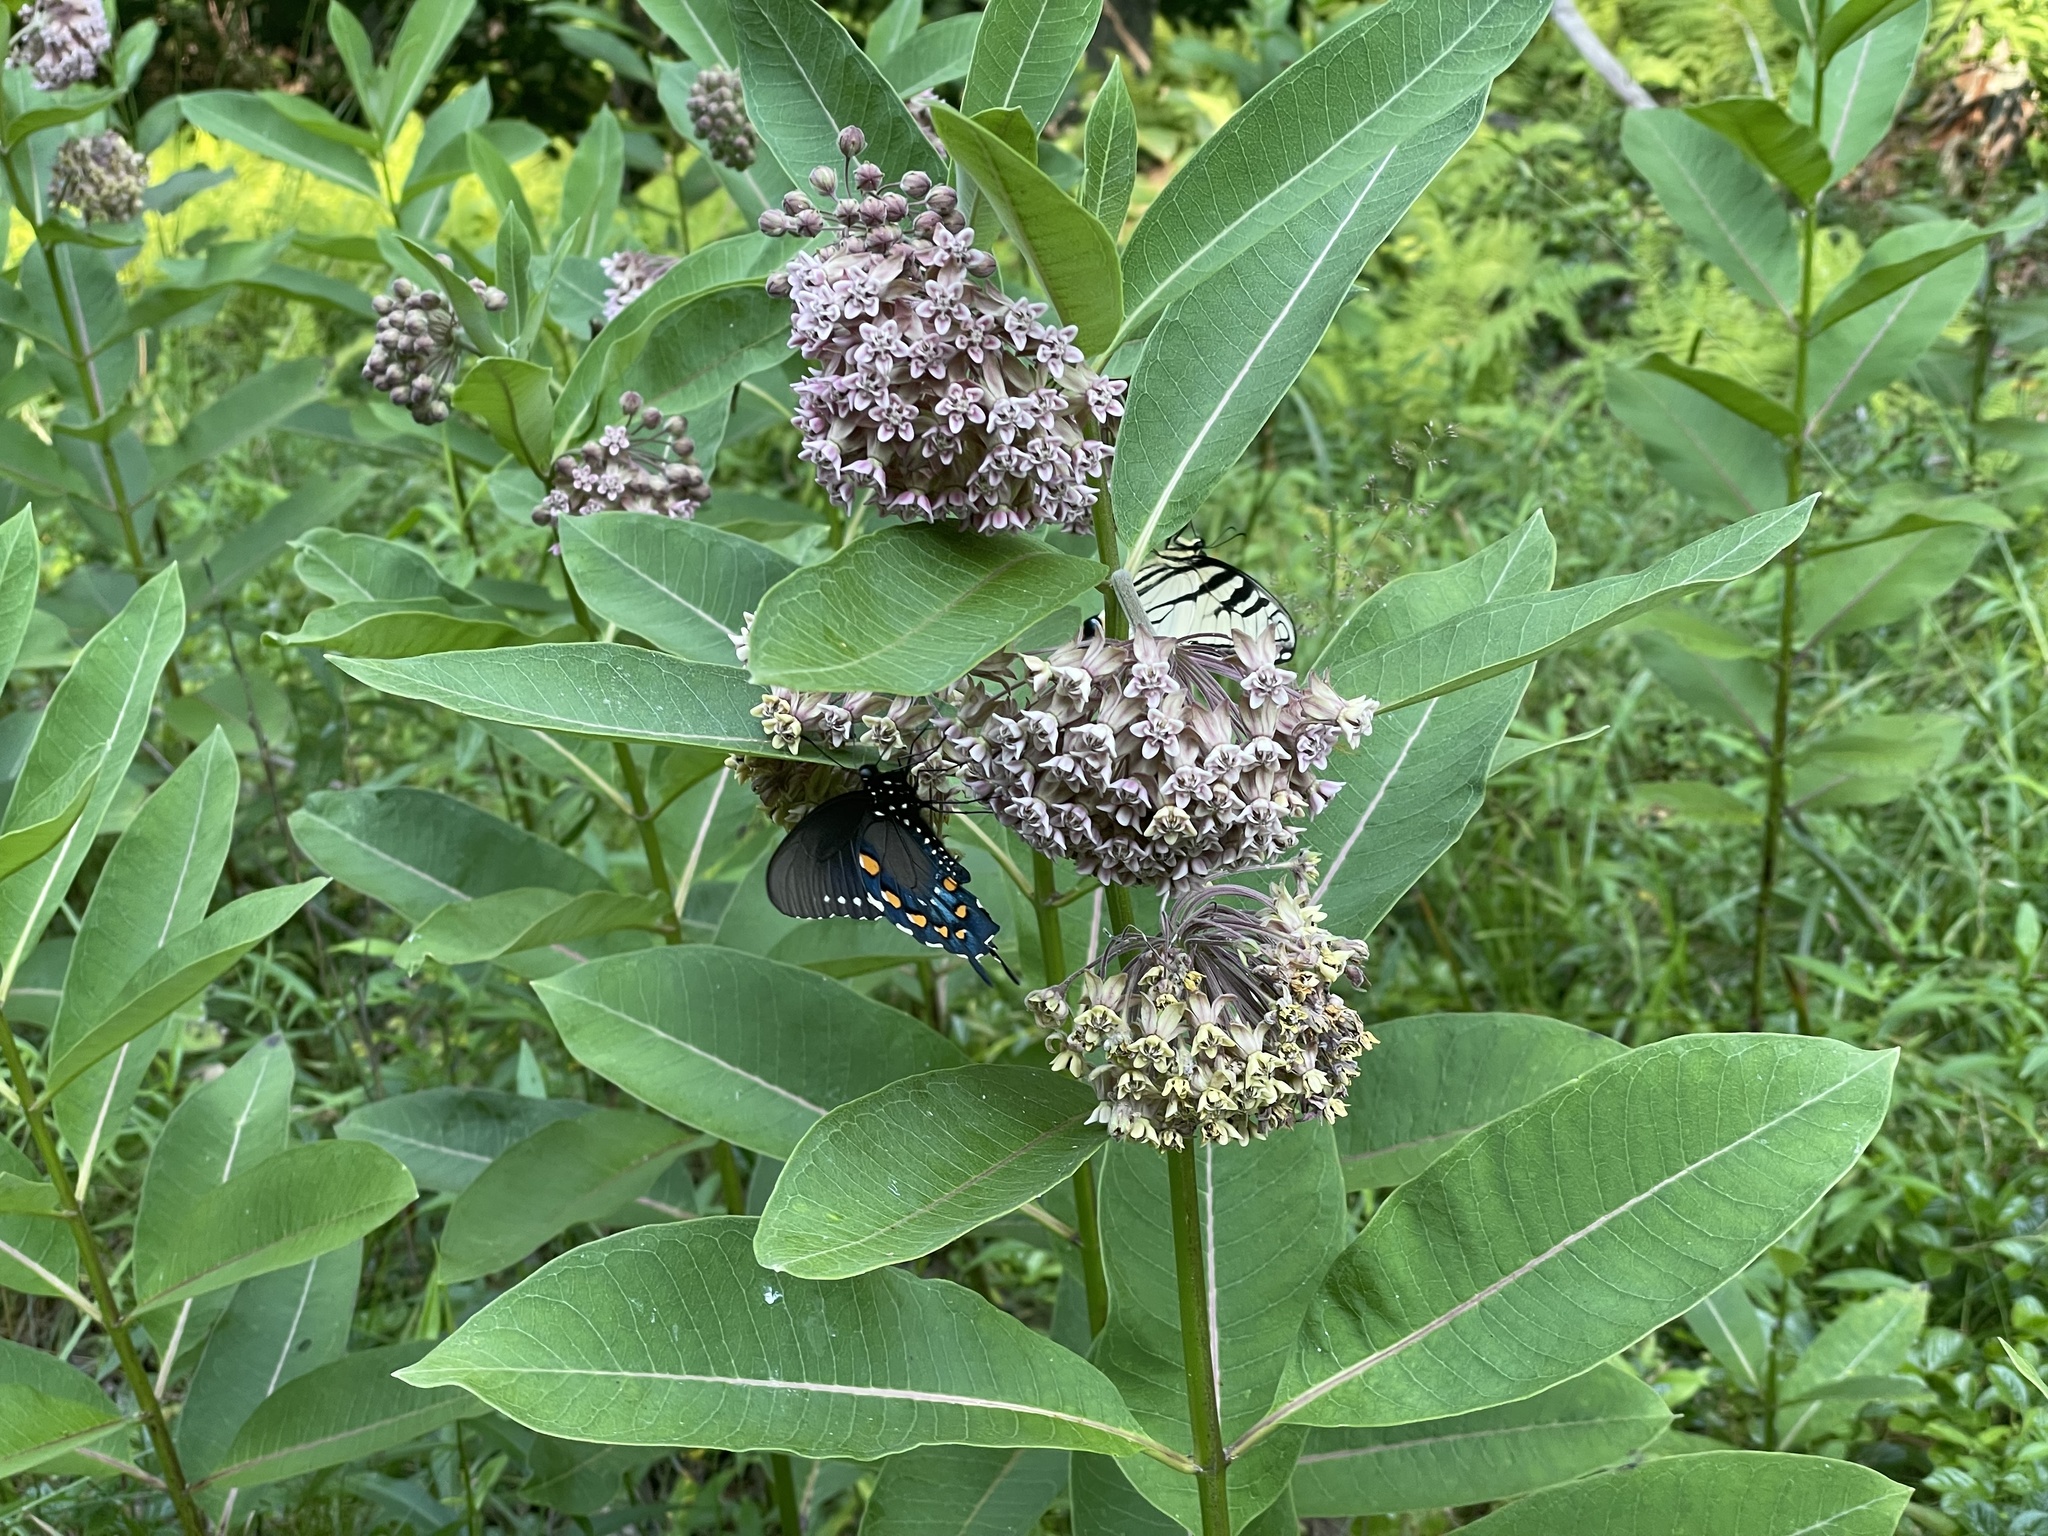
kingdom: Animalia
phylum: Arthropoda
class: Insecta
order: Lepidoptera
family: Papilionidae
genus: Battus
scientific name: Battus philenor
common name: Pipevine swallowtail
